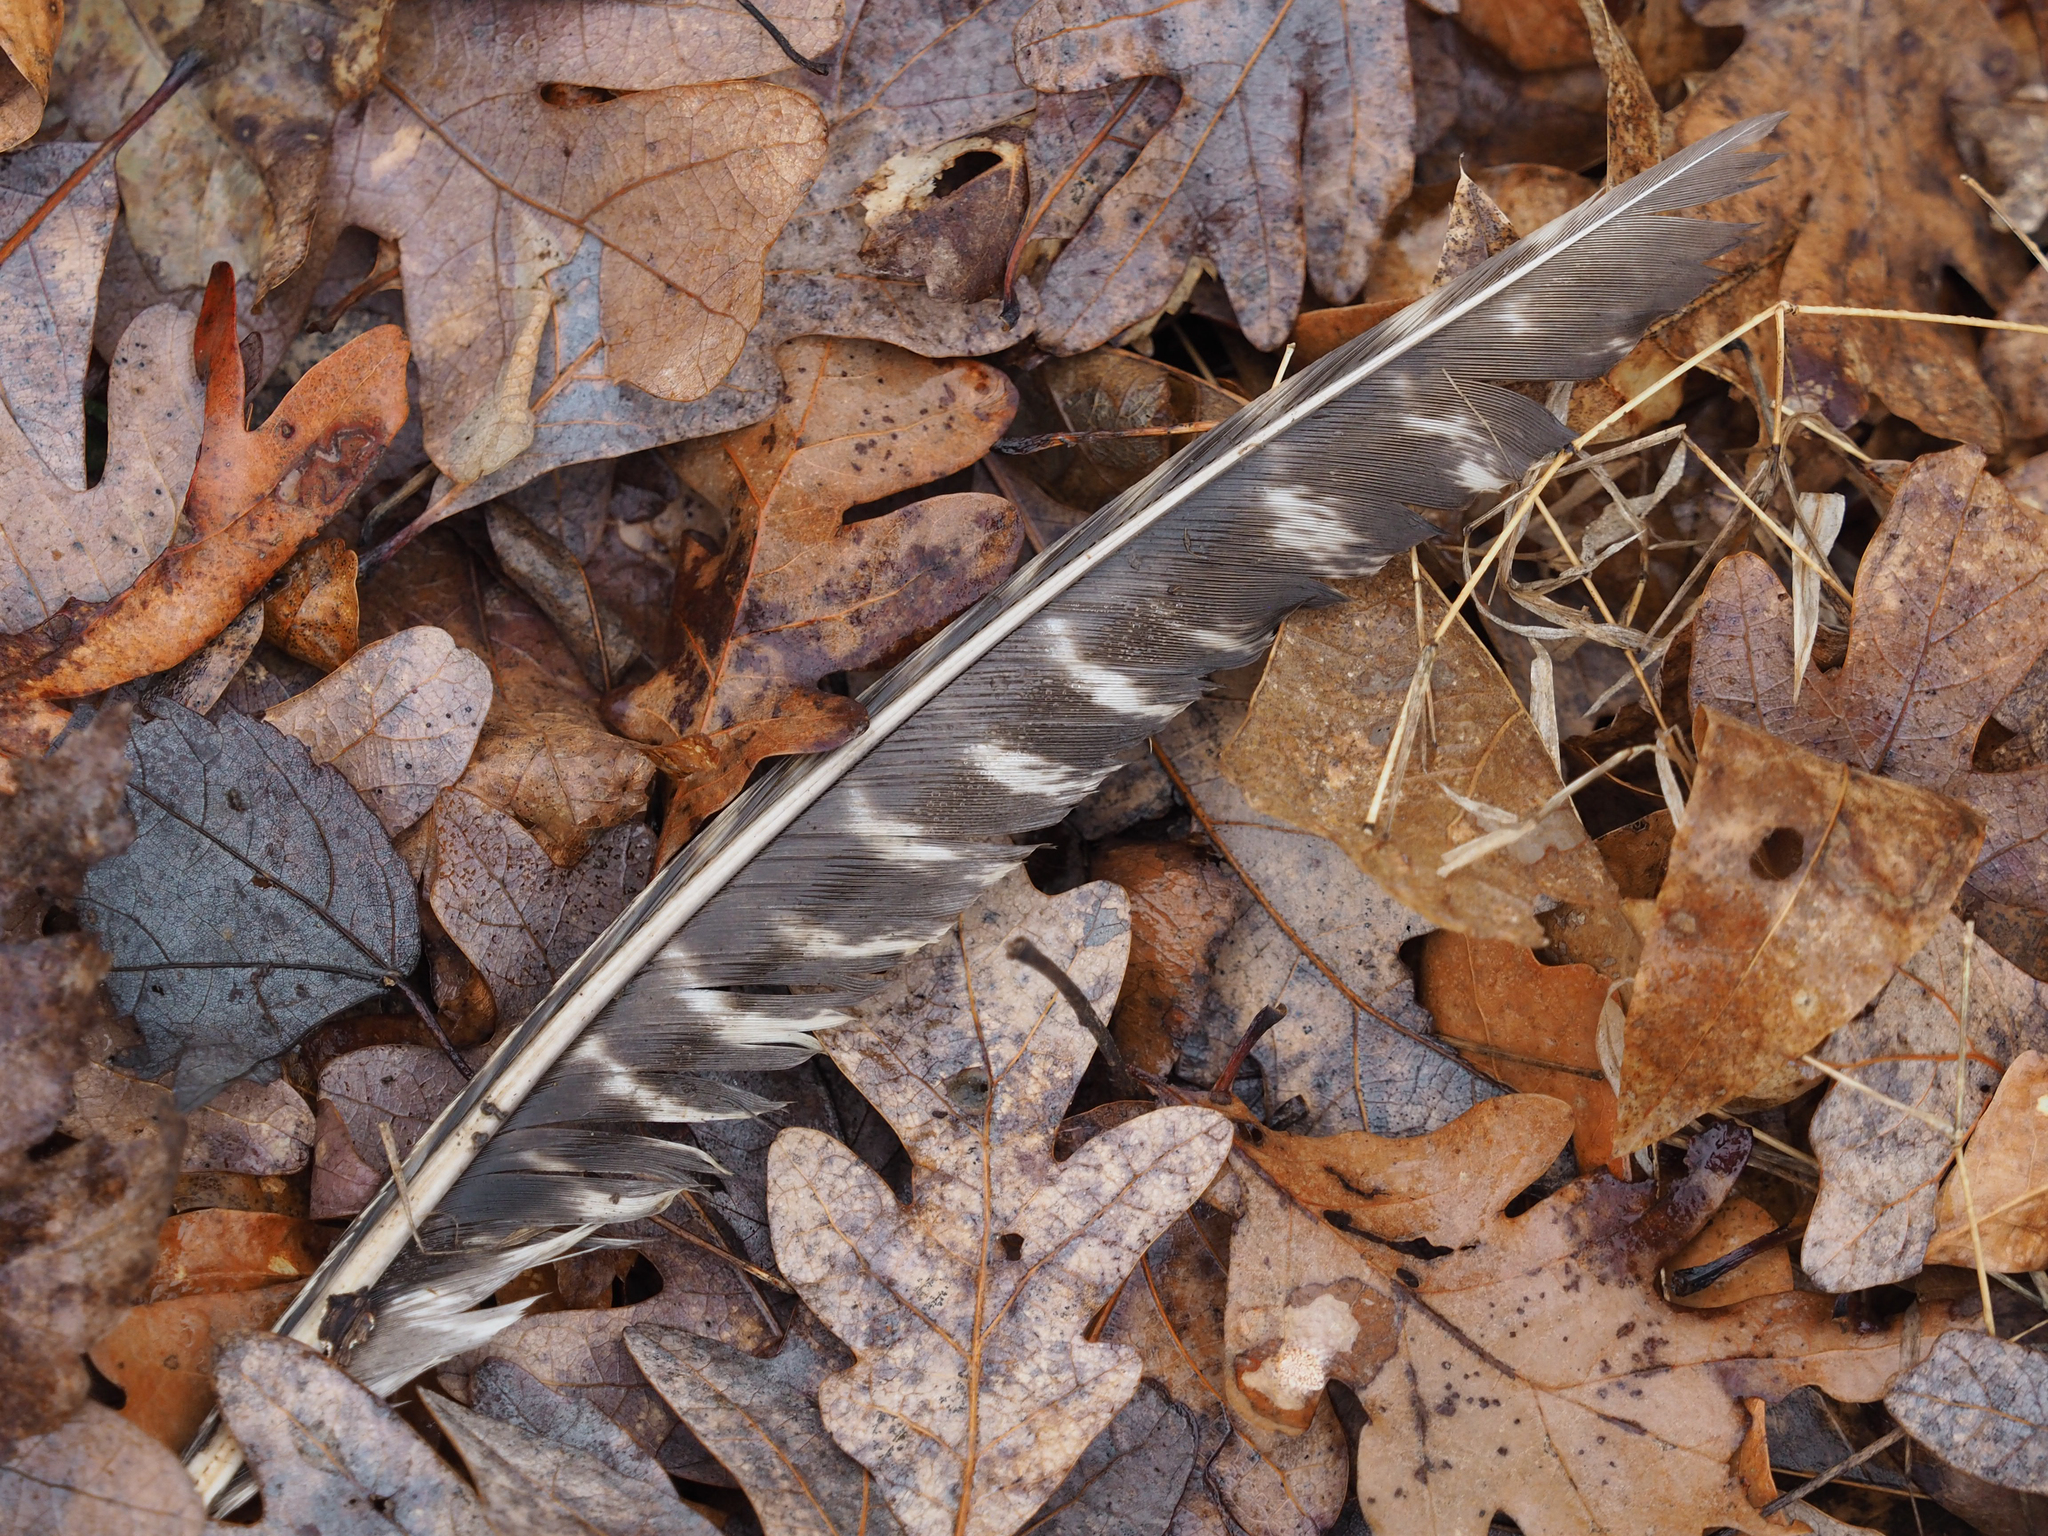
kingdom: Animalia
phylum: Chordata
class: Aves
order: Galliformes
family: Phasianidae
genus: Meleagris
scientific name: Meleagris gallopavo
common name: Wild turkey
